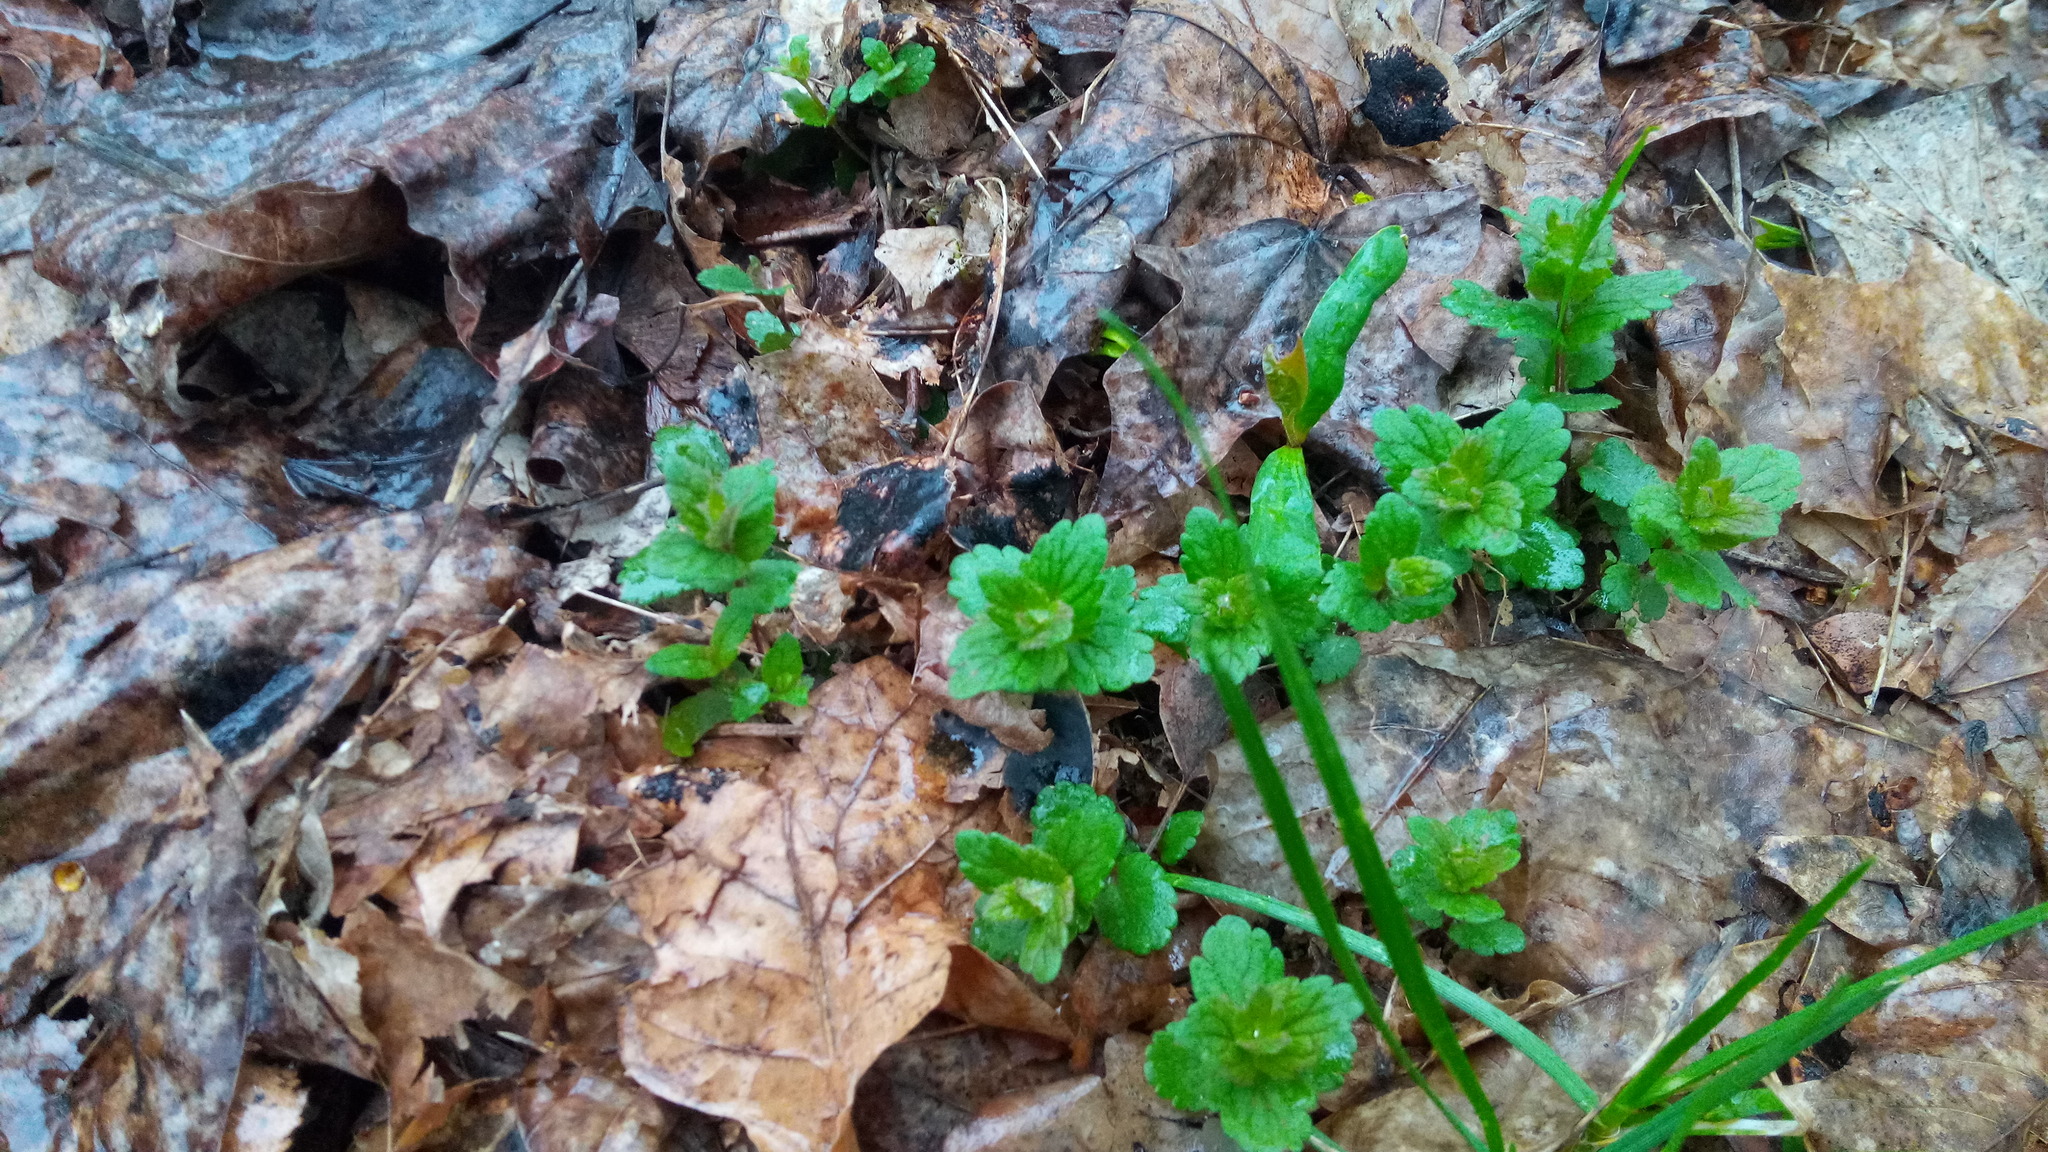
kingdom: Plantae
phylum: Tracheophyta
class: Magnoliopsida
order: Lamiales
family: Plantaginaceae
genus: Veronica
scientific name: Veronica chamaedrys
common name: Germander speedwell
